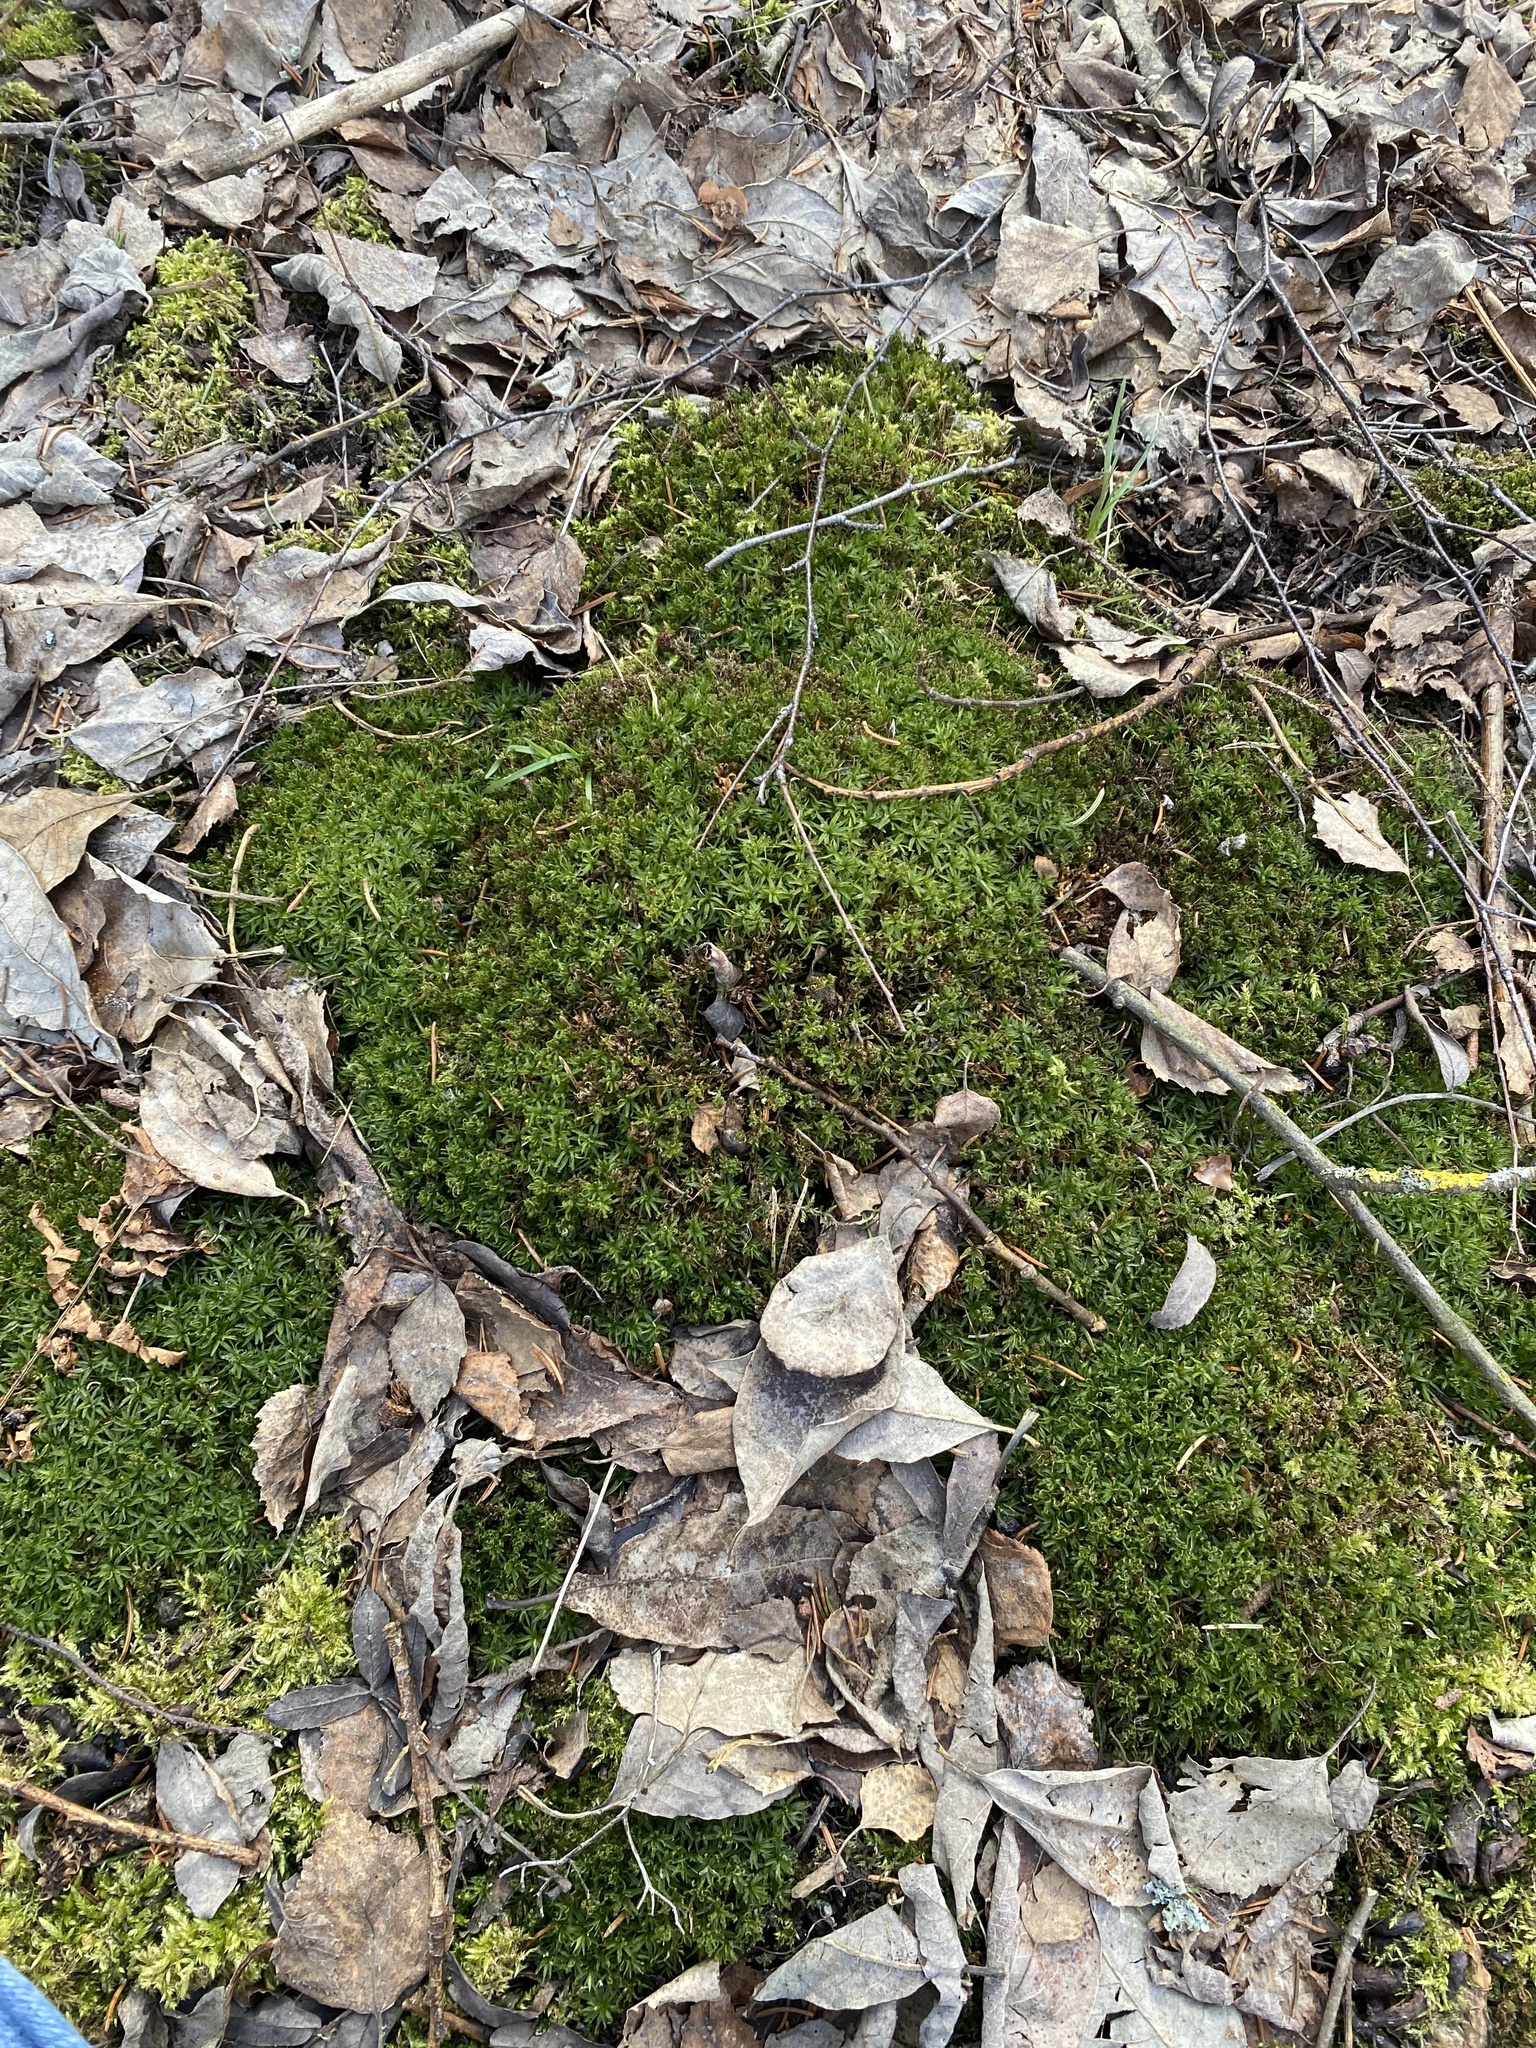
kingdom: Plantae
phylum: Bryophyta
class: Polytrichopsida
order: Polytrichales
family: Polytrichaceae
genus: Atrichum
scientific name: Atrichum undulatum
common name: Common smoothcap
